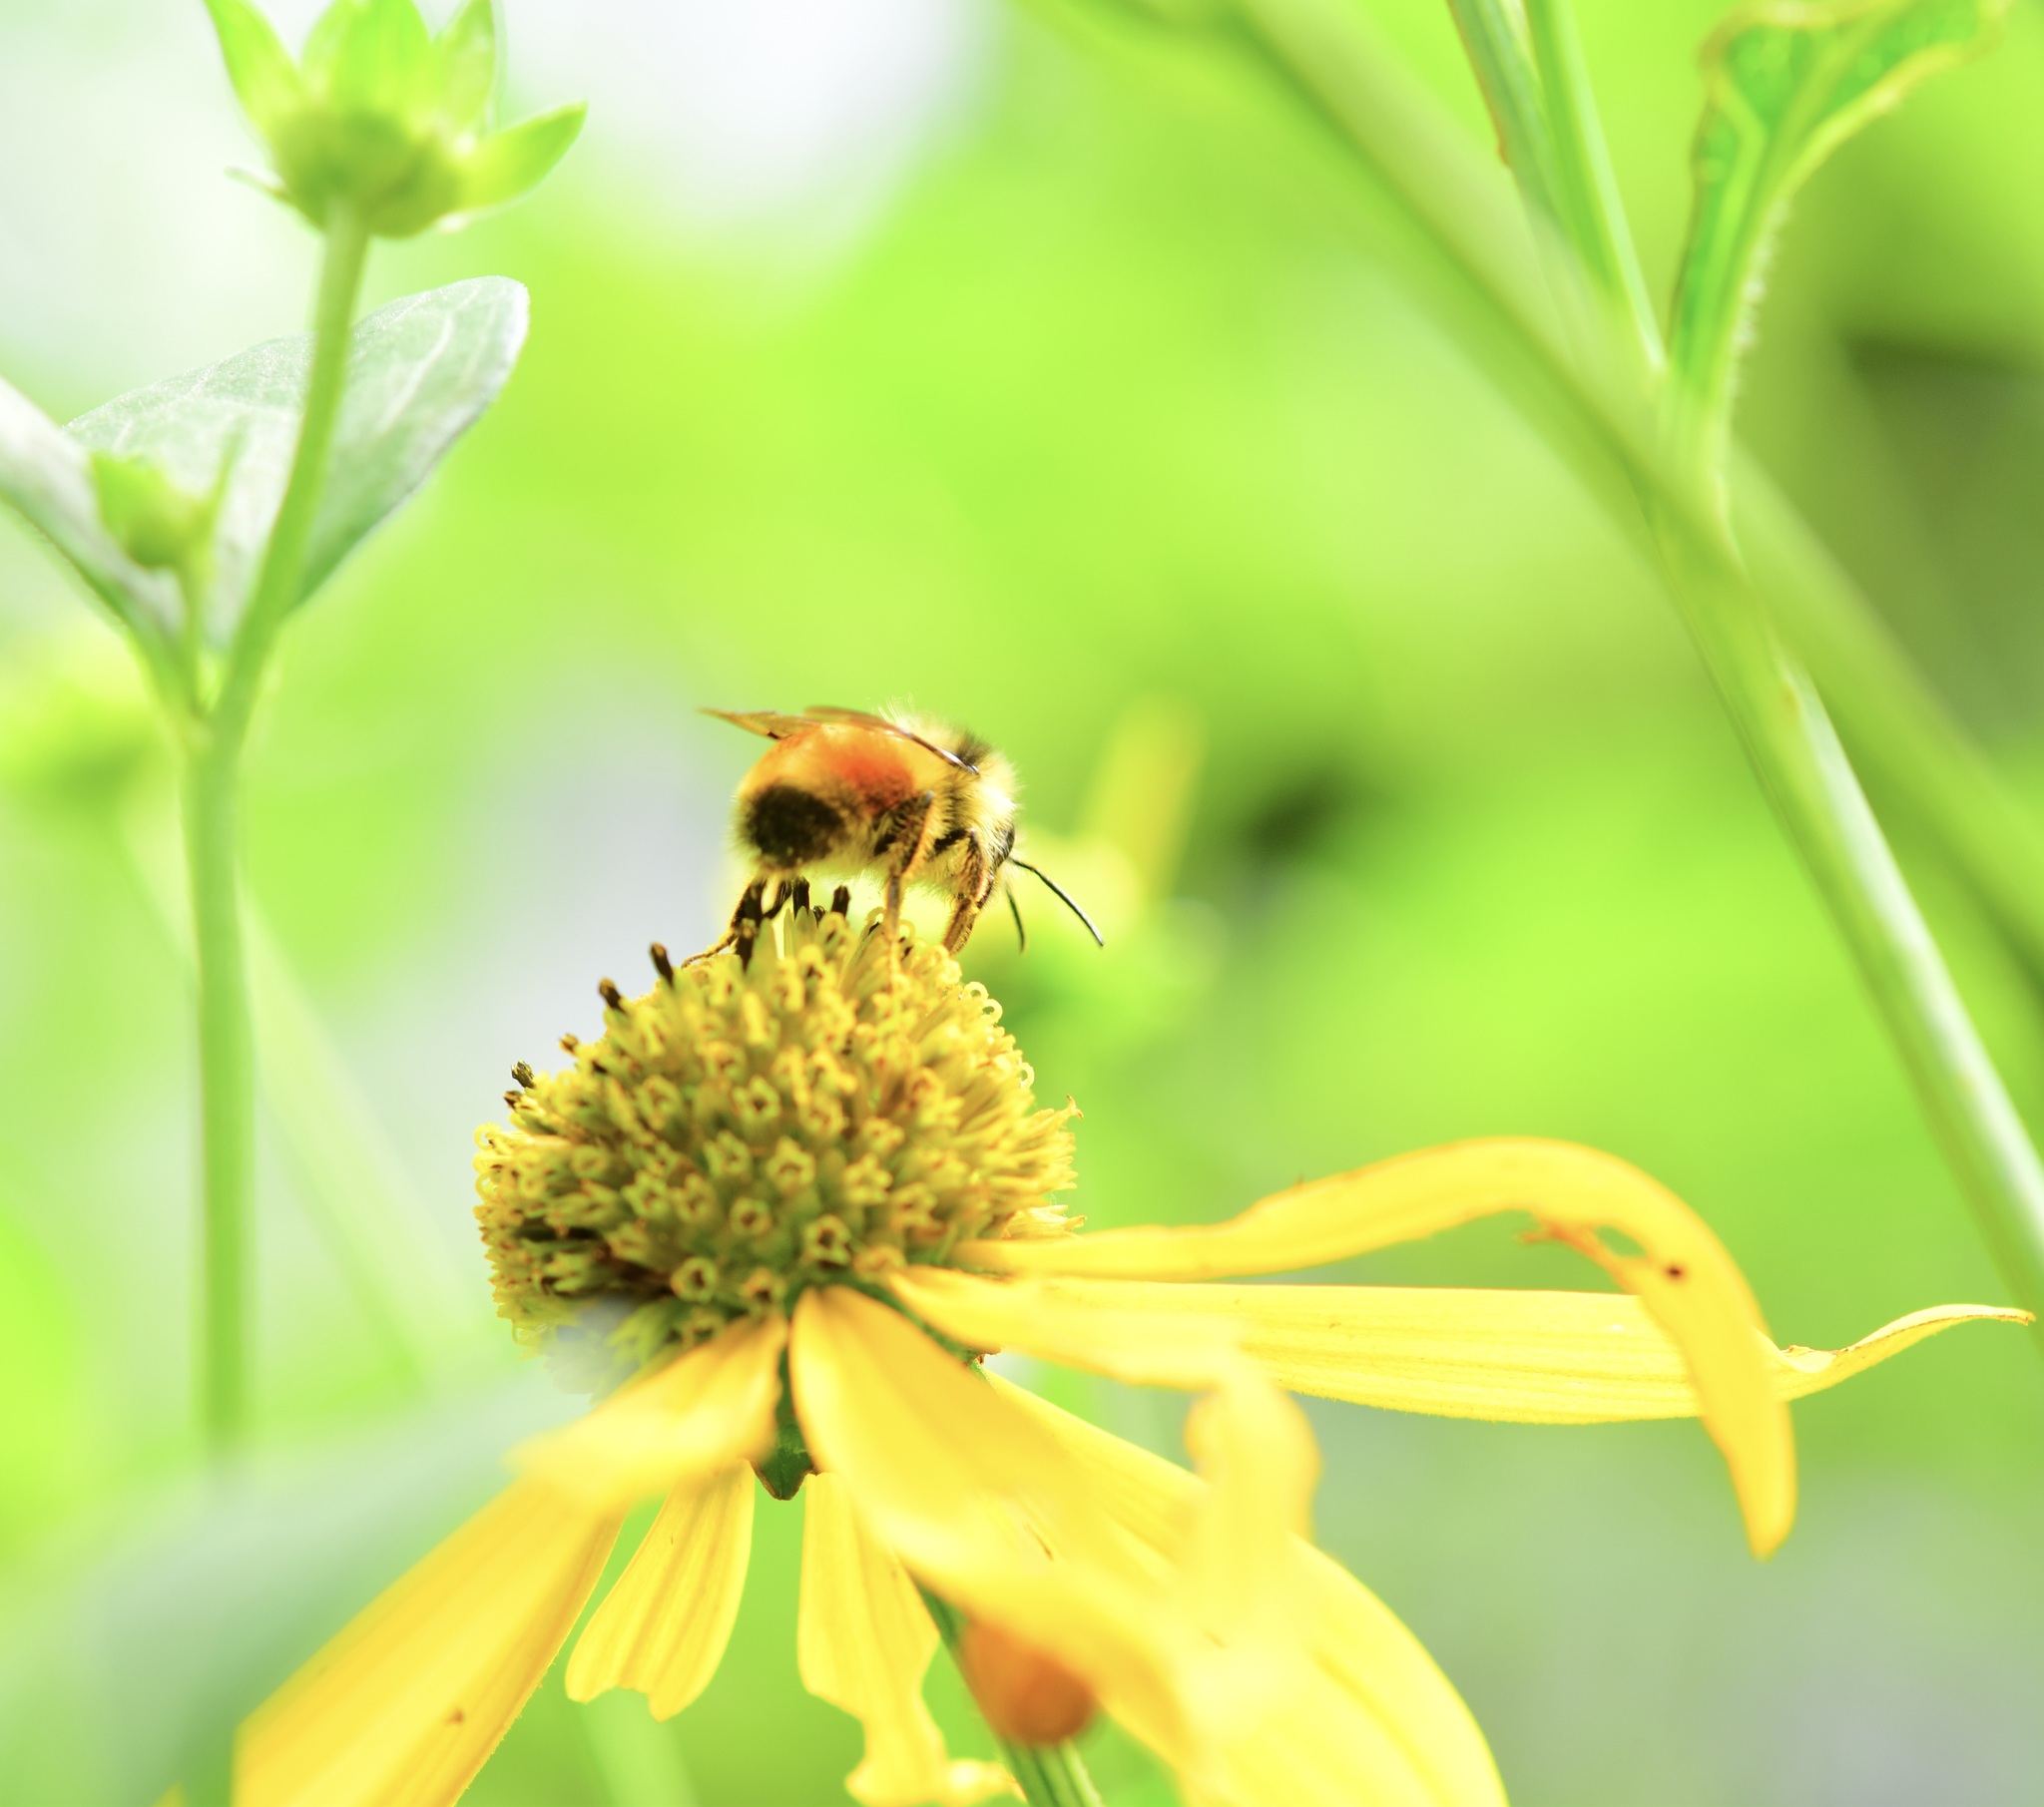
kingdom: Animalia
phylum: Arthropoda
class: Insecta
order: Hymenoptera
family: Apidae
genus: Bombus
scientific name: Bombus ternarius
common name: Tri-colored bumble bee
